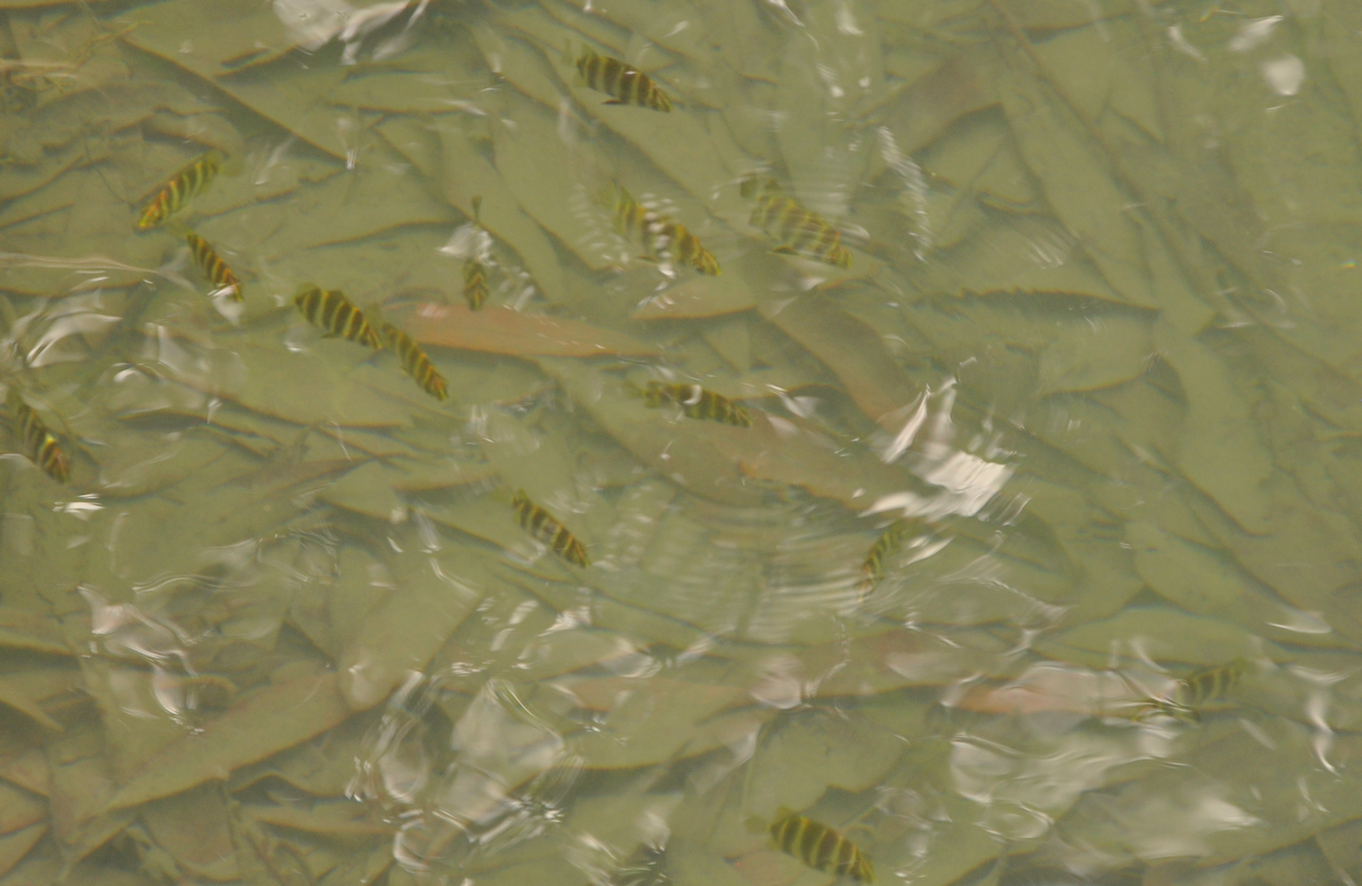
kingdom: Animalia
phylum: Chordata
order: Perciformes
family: Scatophagidae
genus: Scatophagus
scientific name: Scatophagus tetracanthus
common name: Scatty
